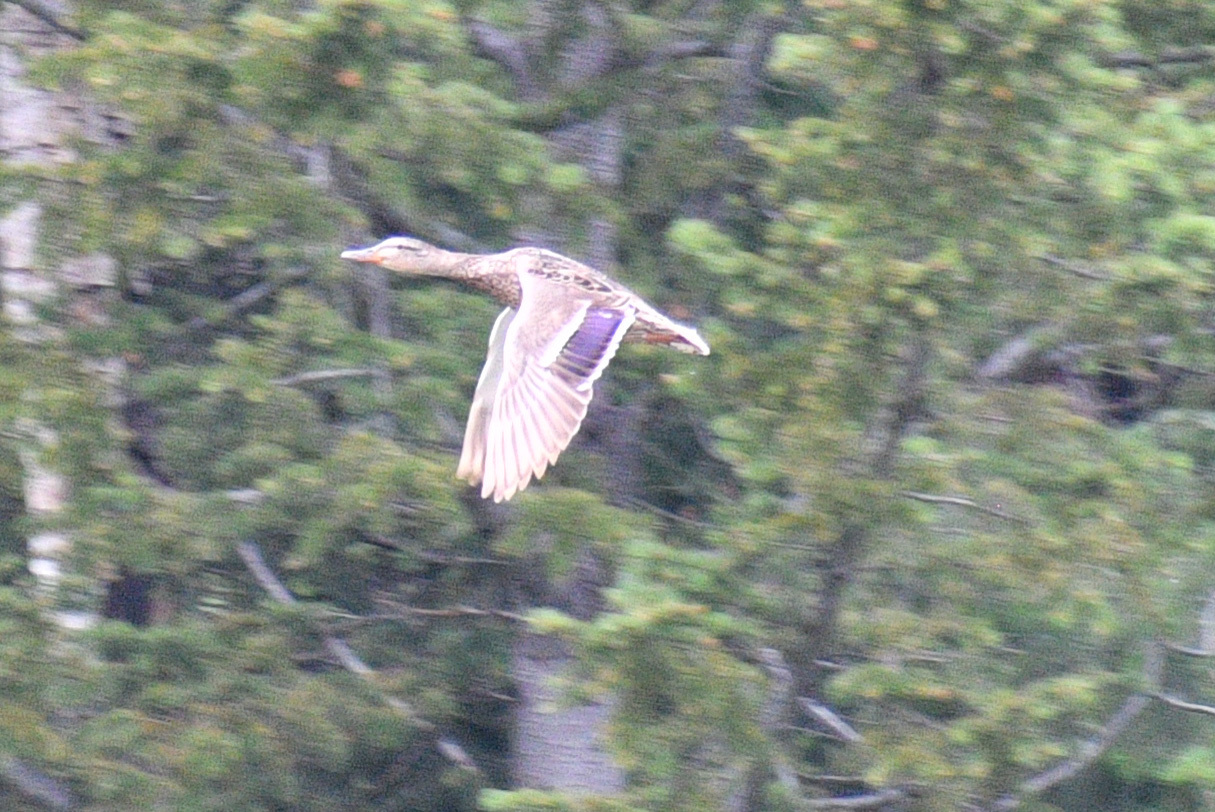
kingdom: Animalia
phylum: Chordata
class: Aves
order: Anseriformes
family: Anatidae
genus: Anas
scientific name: Anas platyrhynchos
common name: Mallard
